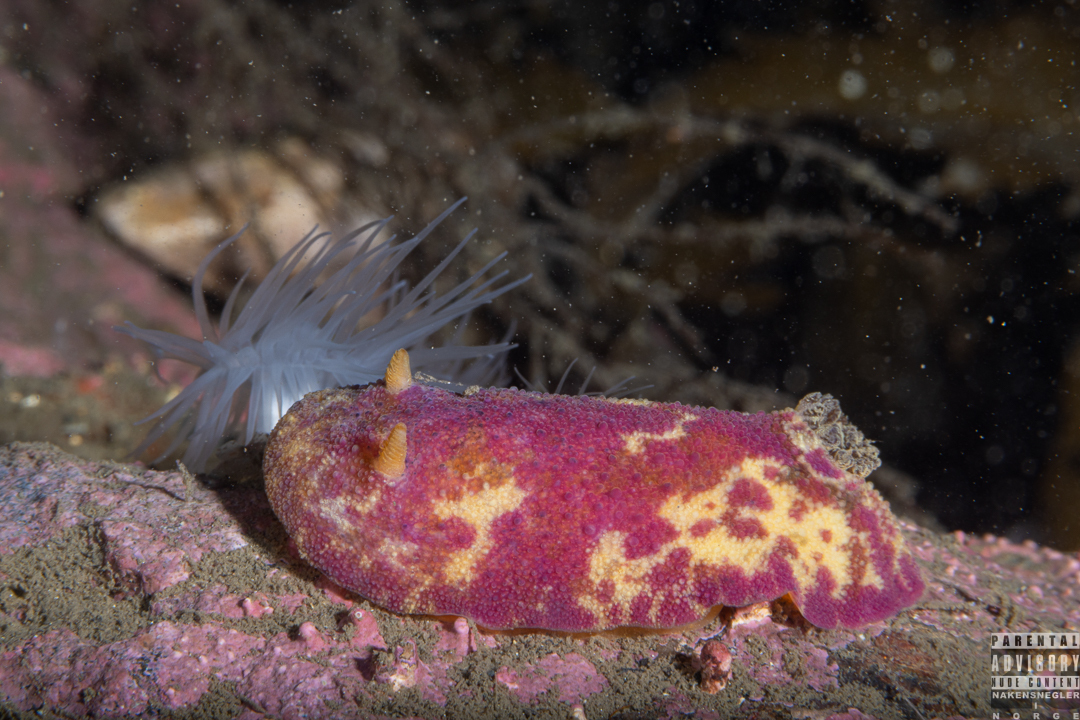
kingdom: Animalia
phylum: Mollusca
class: Gastropoda
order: Nudibranchia
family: Dorididae
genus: Doris
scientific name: Doris pseudoargus
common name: Sea lemon
